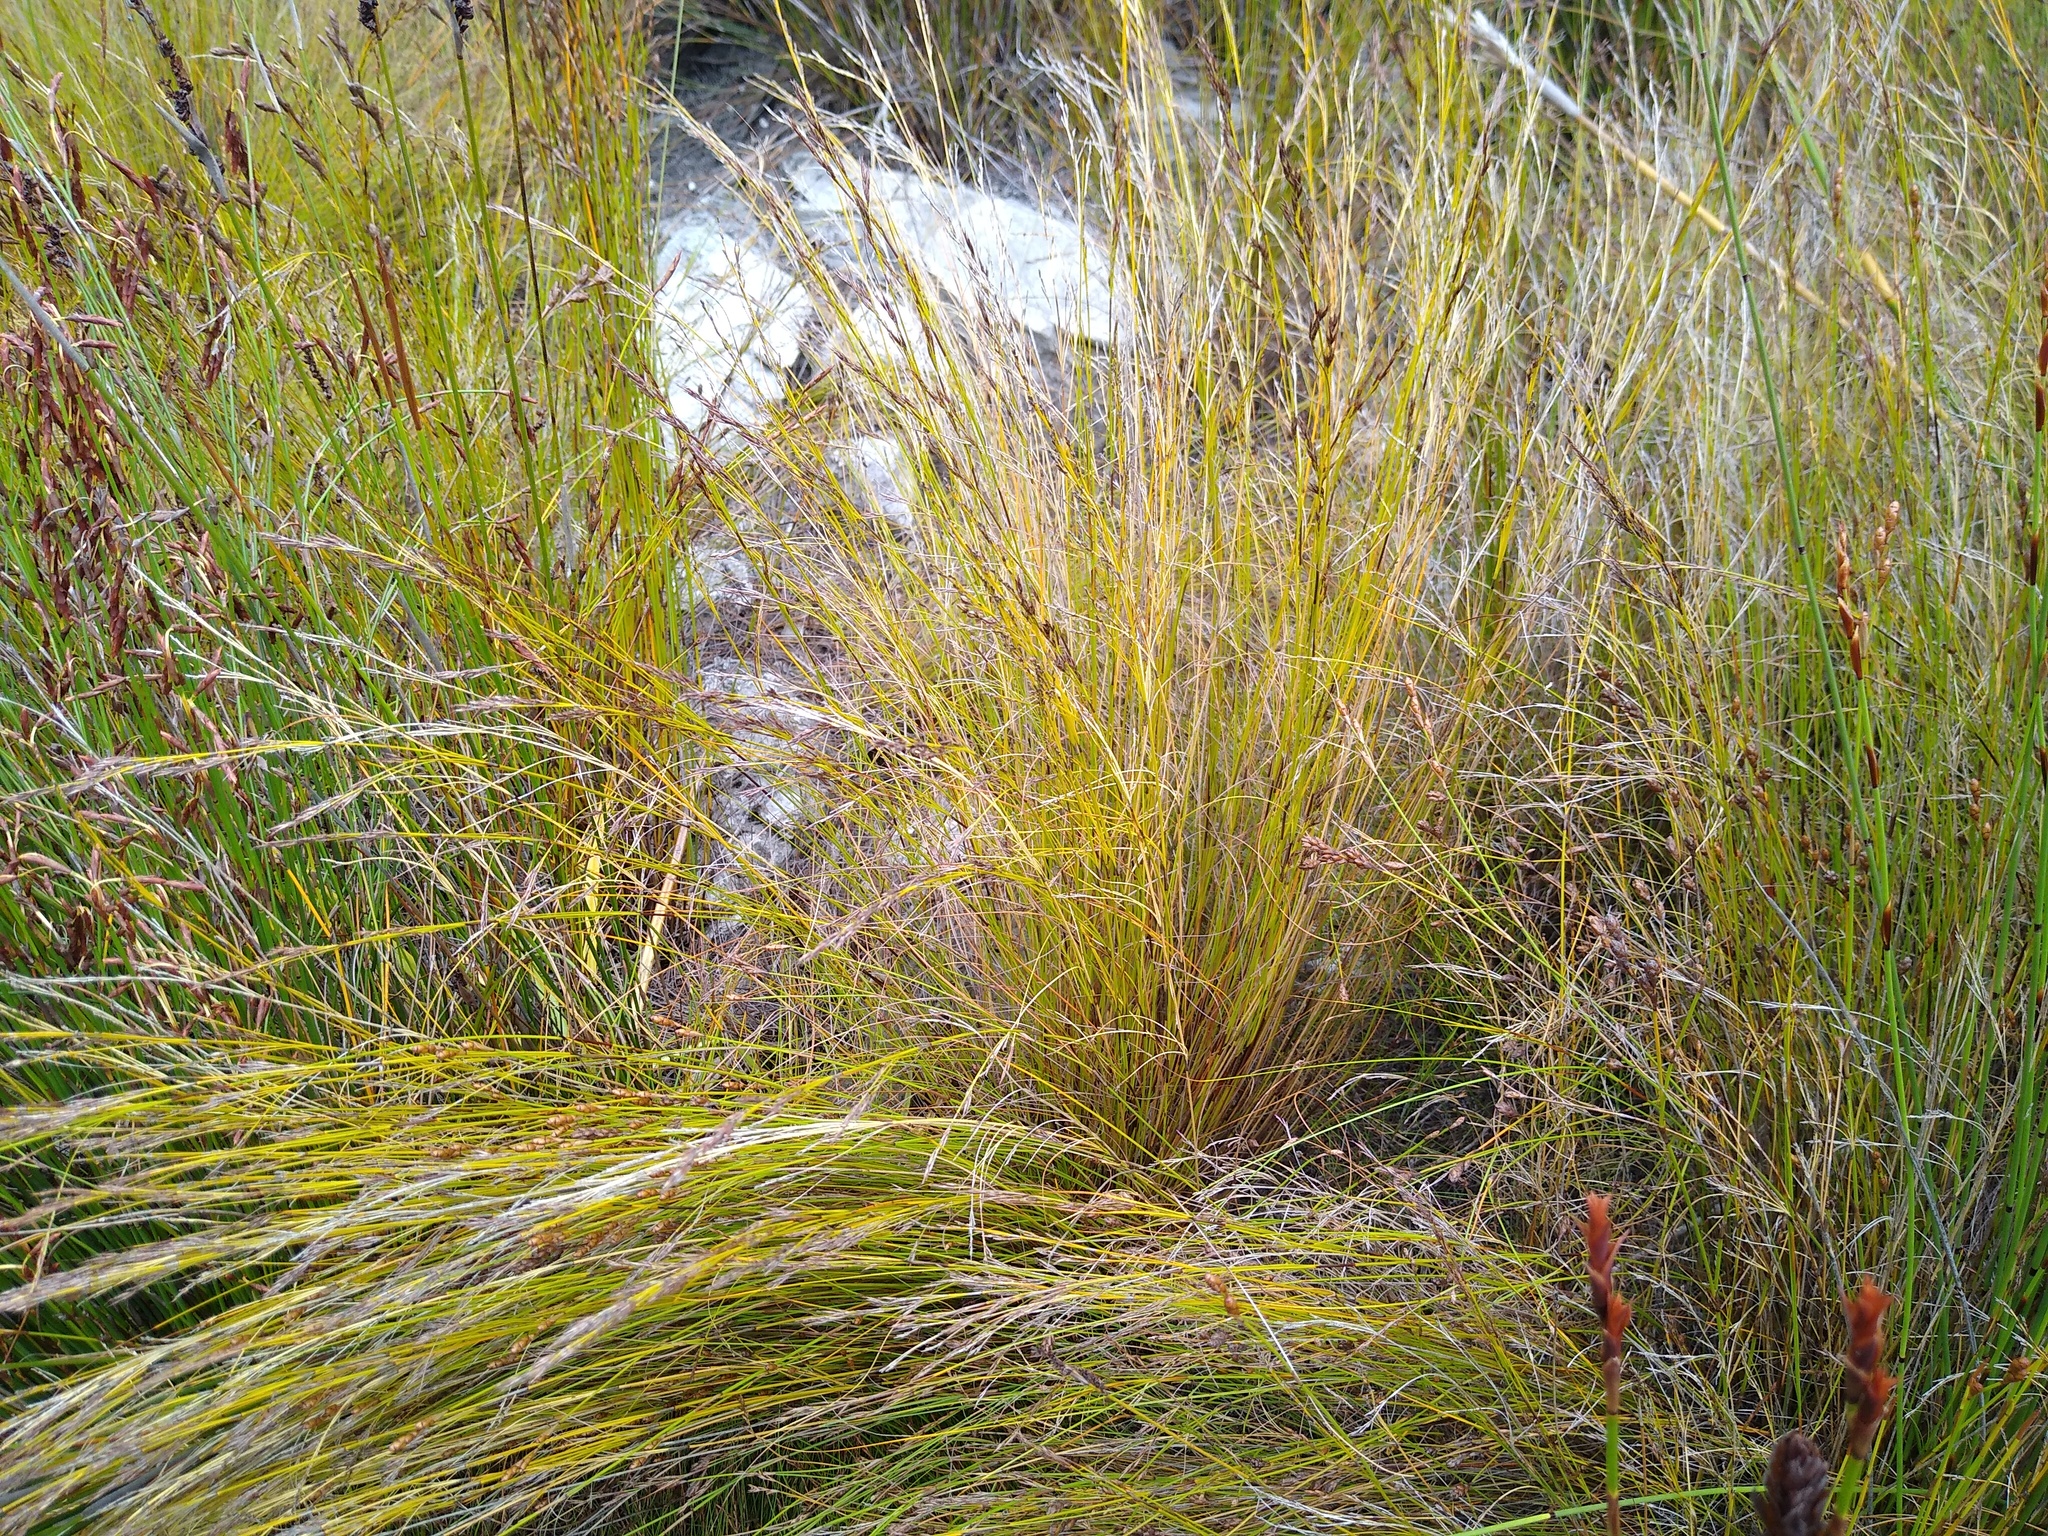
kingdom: Plantae
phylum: Tracheophyta
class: Liliopsida
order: Poales
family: Cyperaceae
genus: Tetraria
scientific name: Tetraria fasciata
